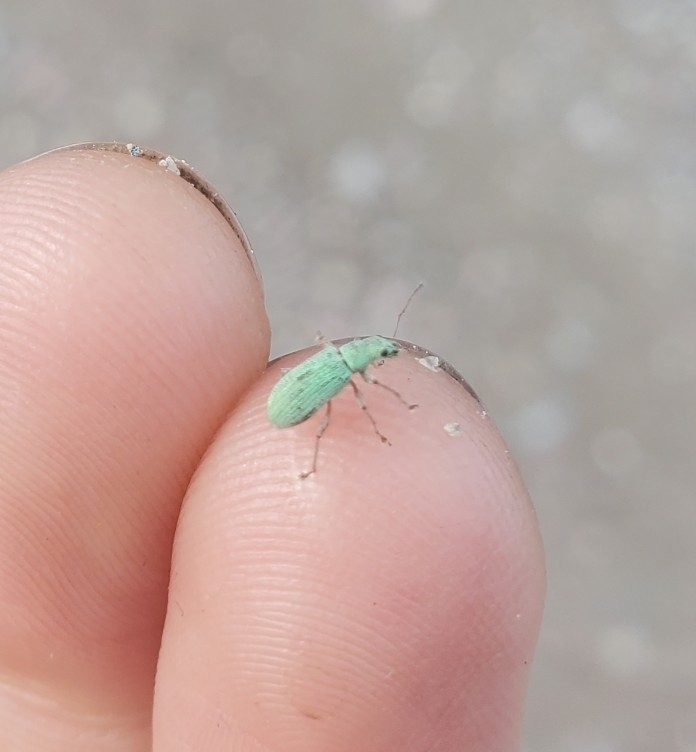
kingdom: Animalia
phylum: Arthropoda
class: Insecta
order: Coleoptera
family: Curculionidae
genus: Polydrusus
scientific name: Polydrusus impressifrons
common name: Weevil
